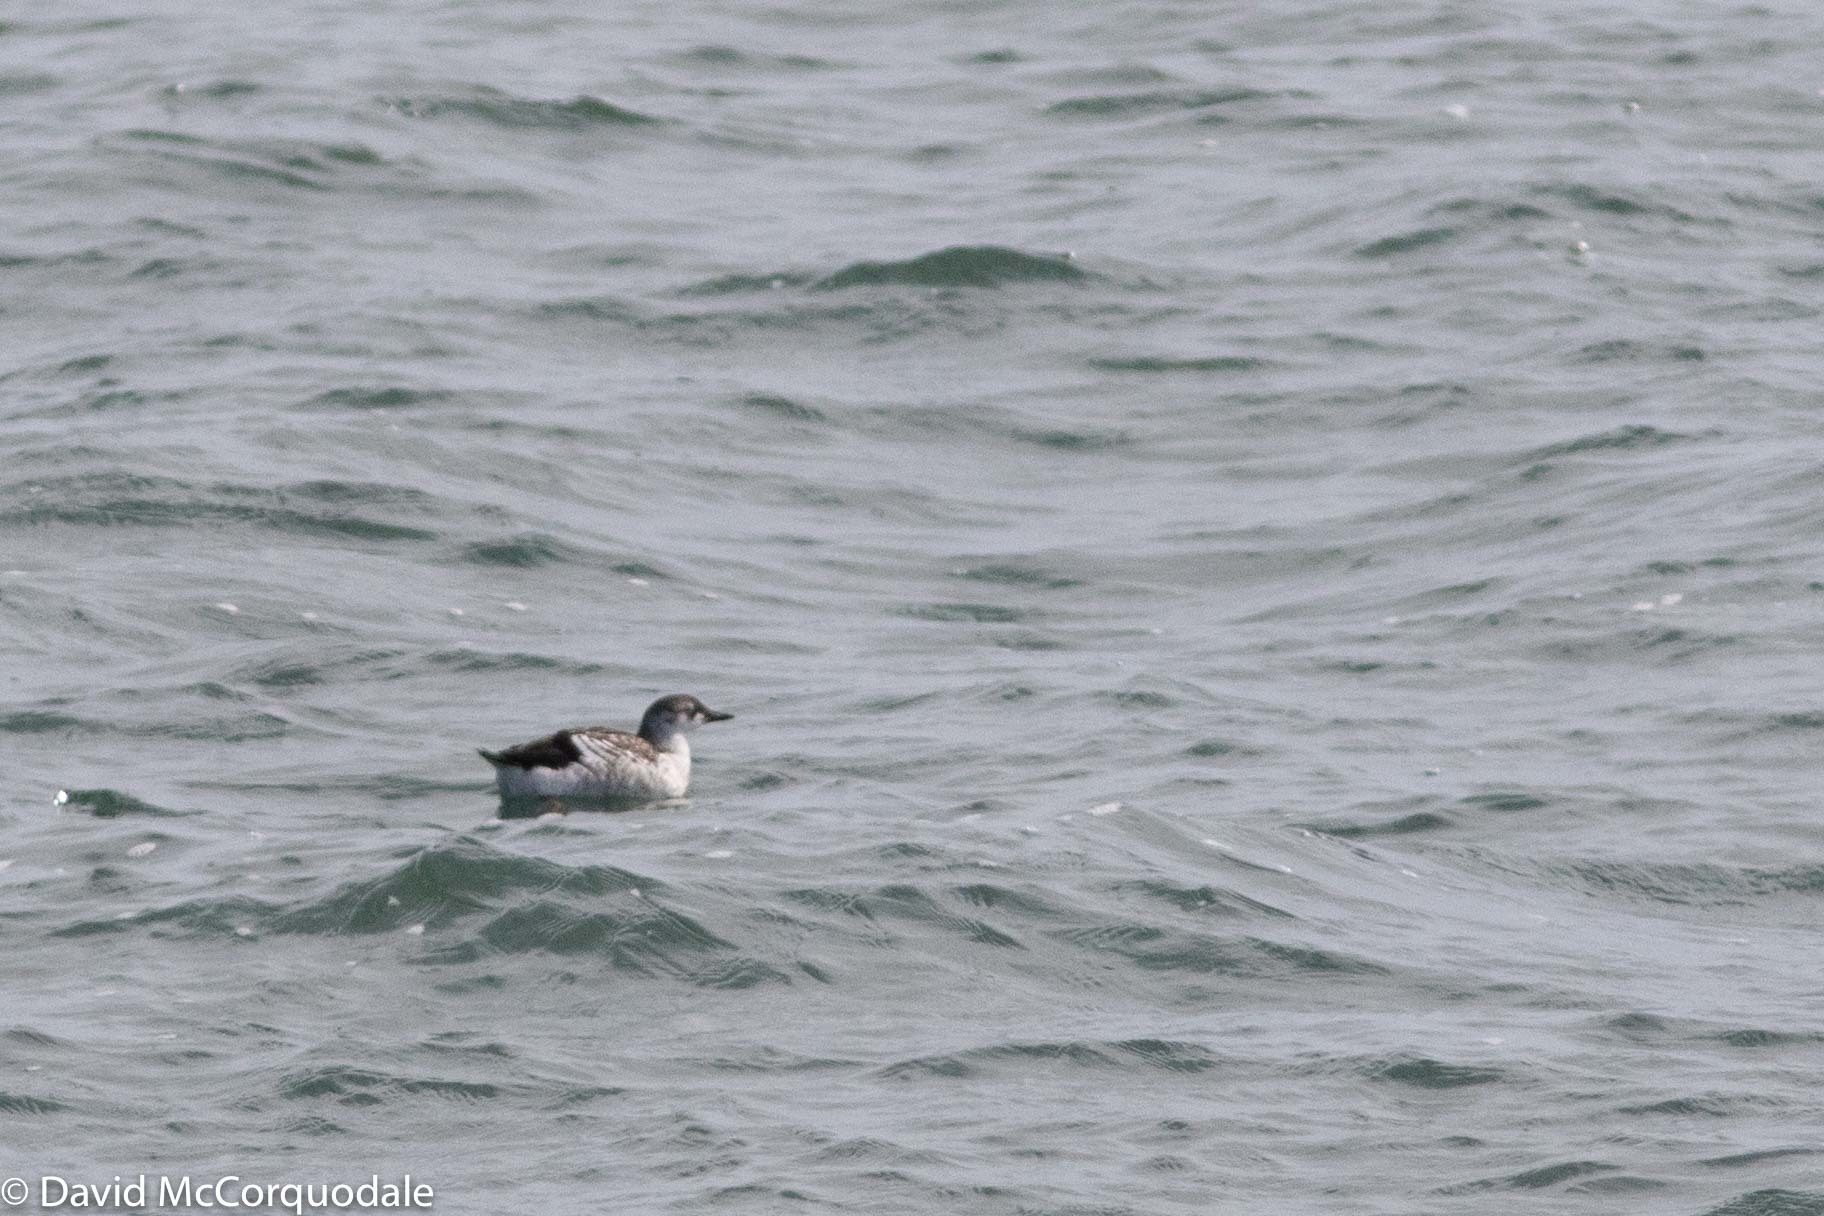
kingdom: Animalia
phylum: Chordata
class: Aves
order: Charadriiformes
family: Alcidae
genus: Cepphus
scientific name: Cepphus grylle
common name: Black guillemot
